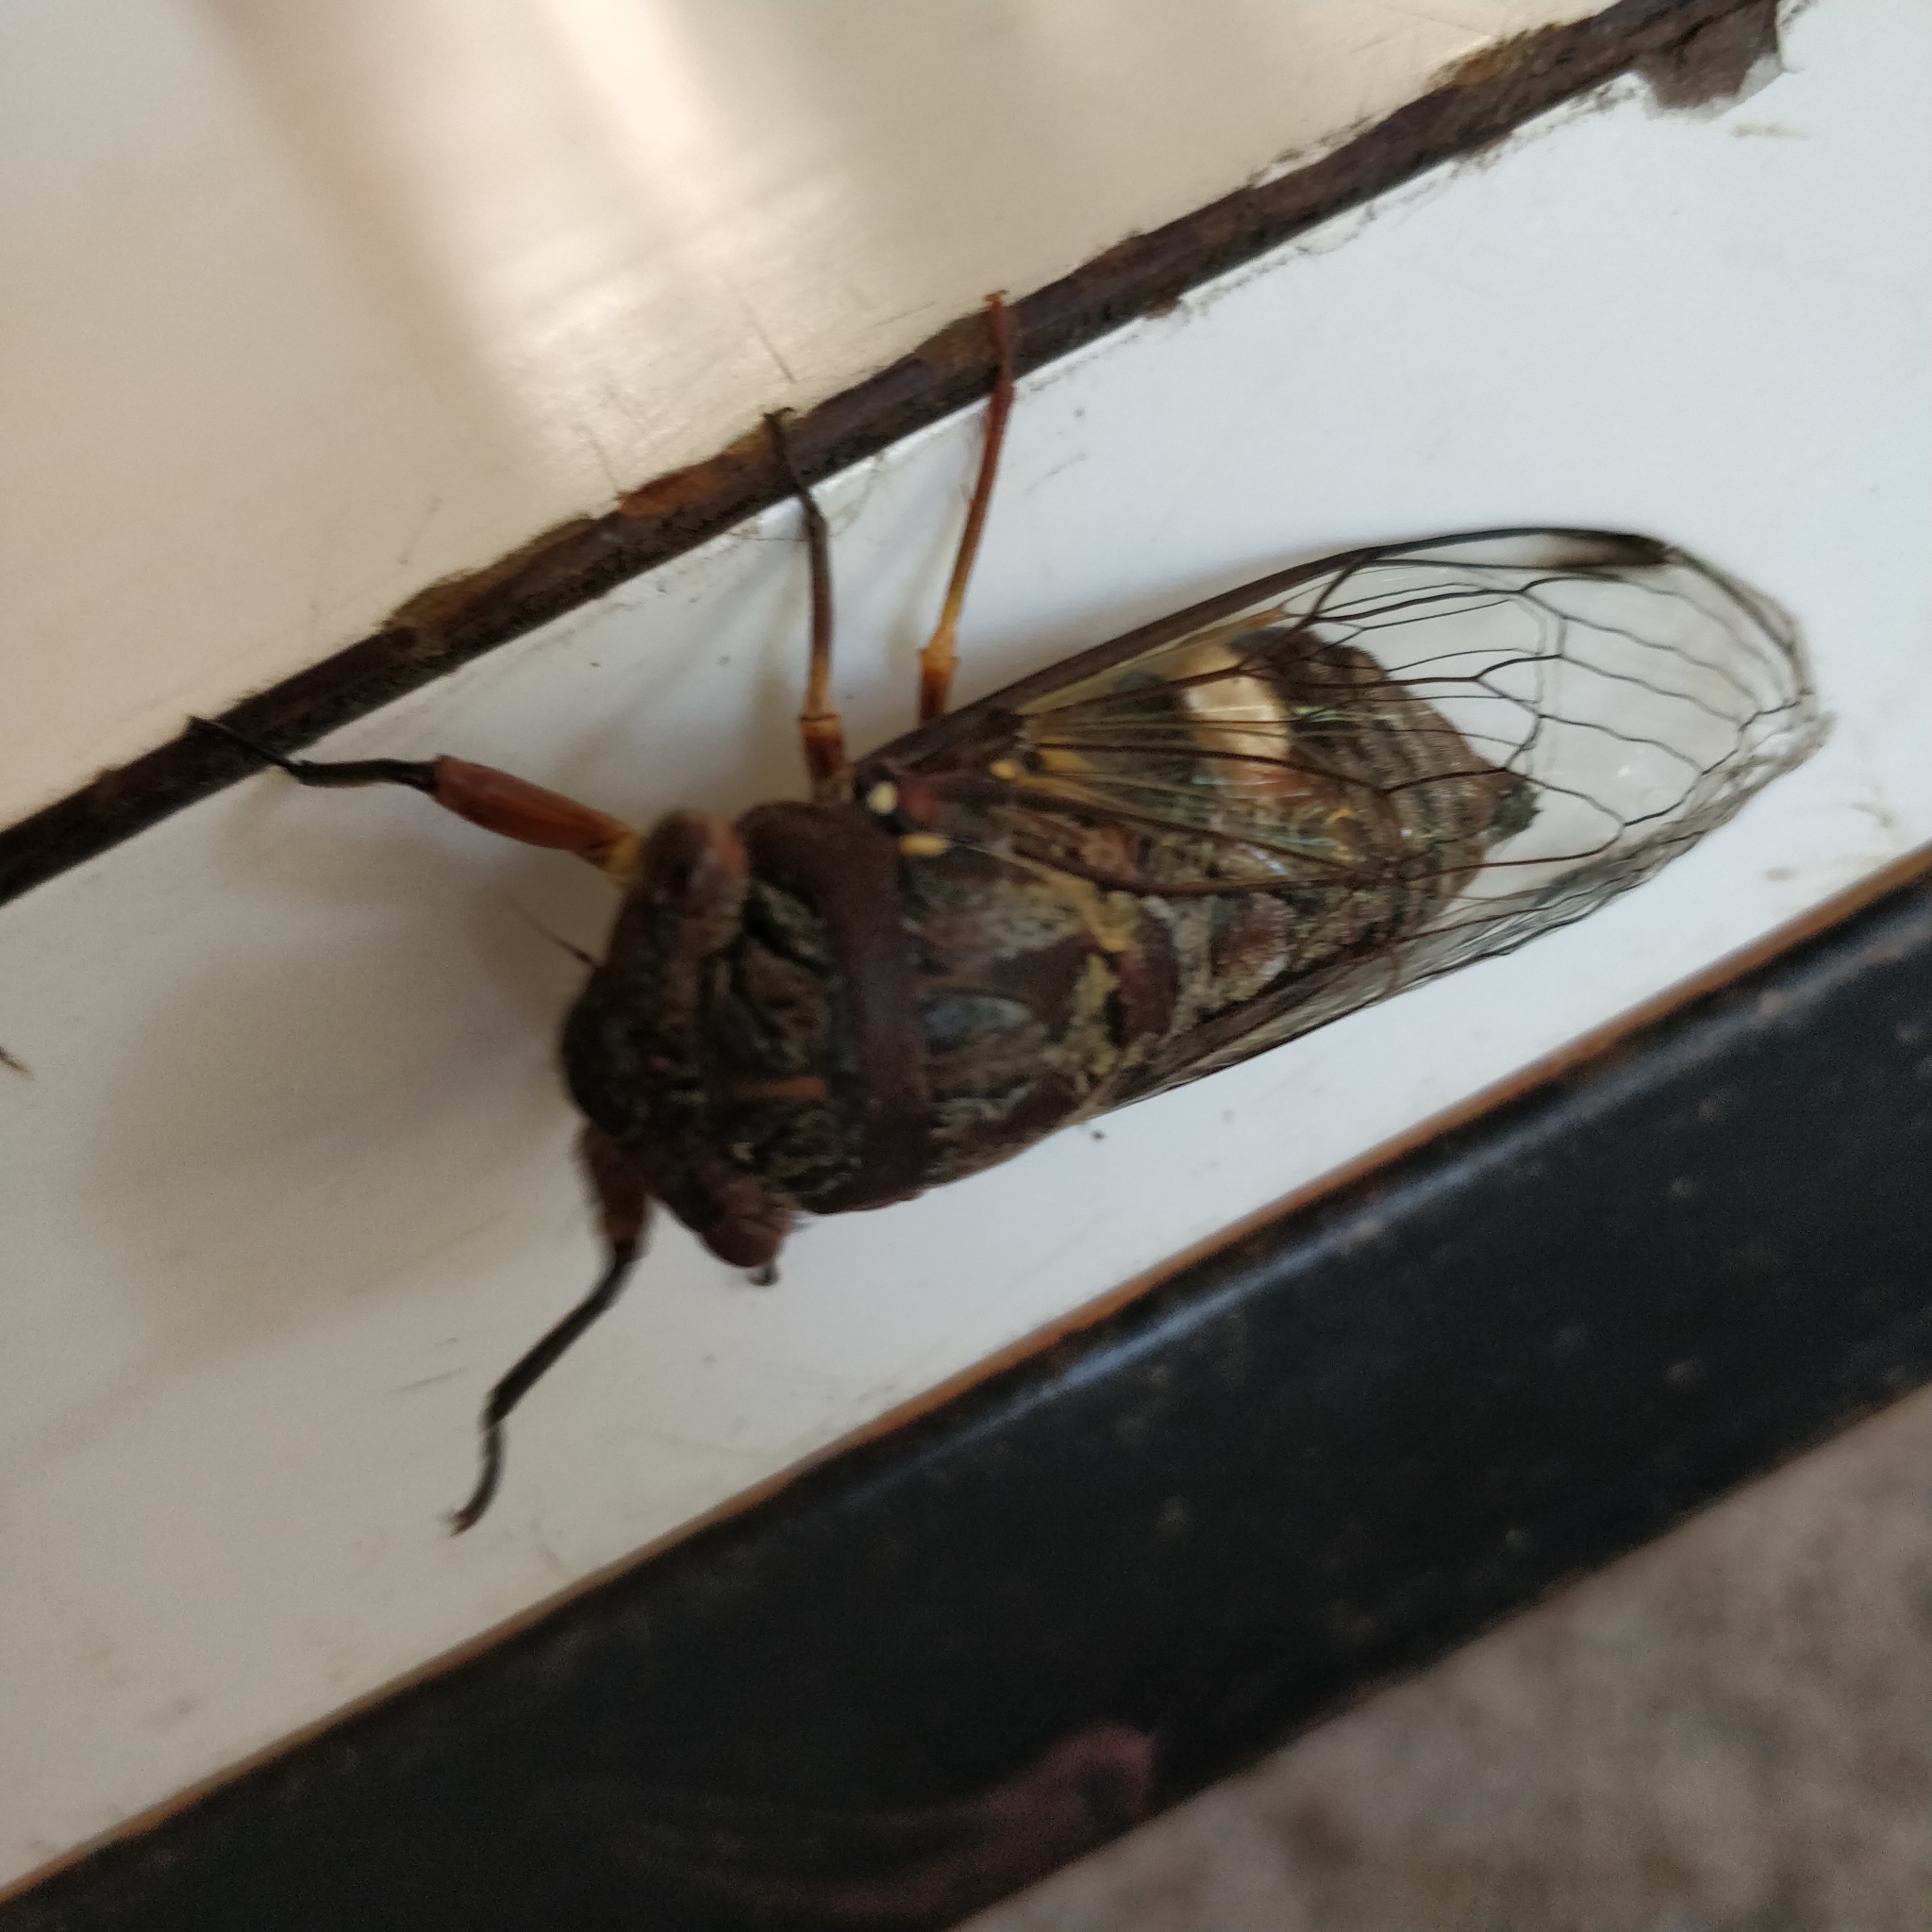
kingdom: Animalia
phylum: Arthropoda
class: Insecta
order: Hemiptera
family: Cicadidae
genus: Psaltoda
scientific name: Psaltoda plaga
